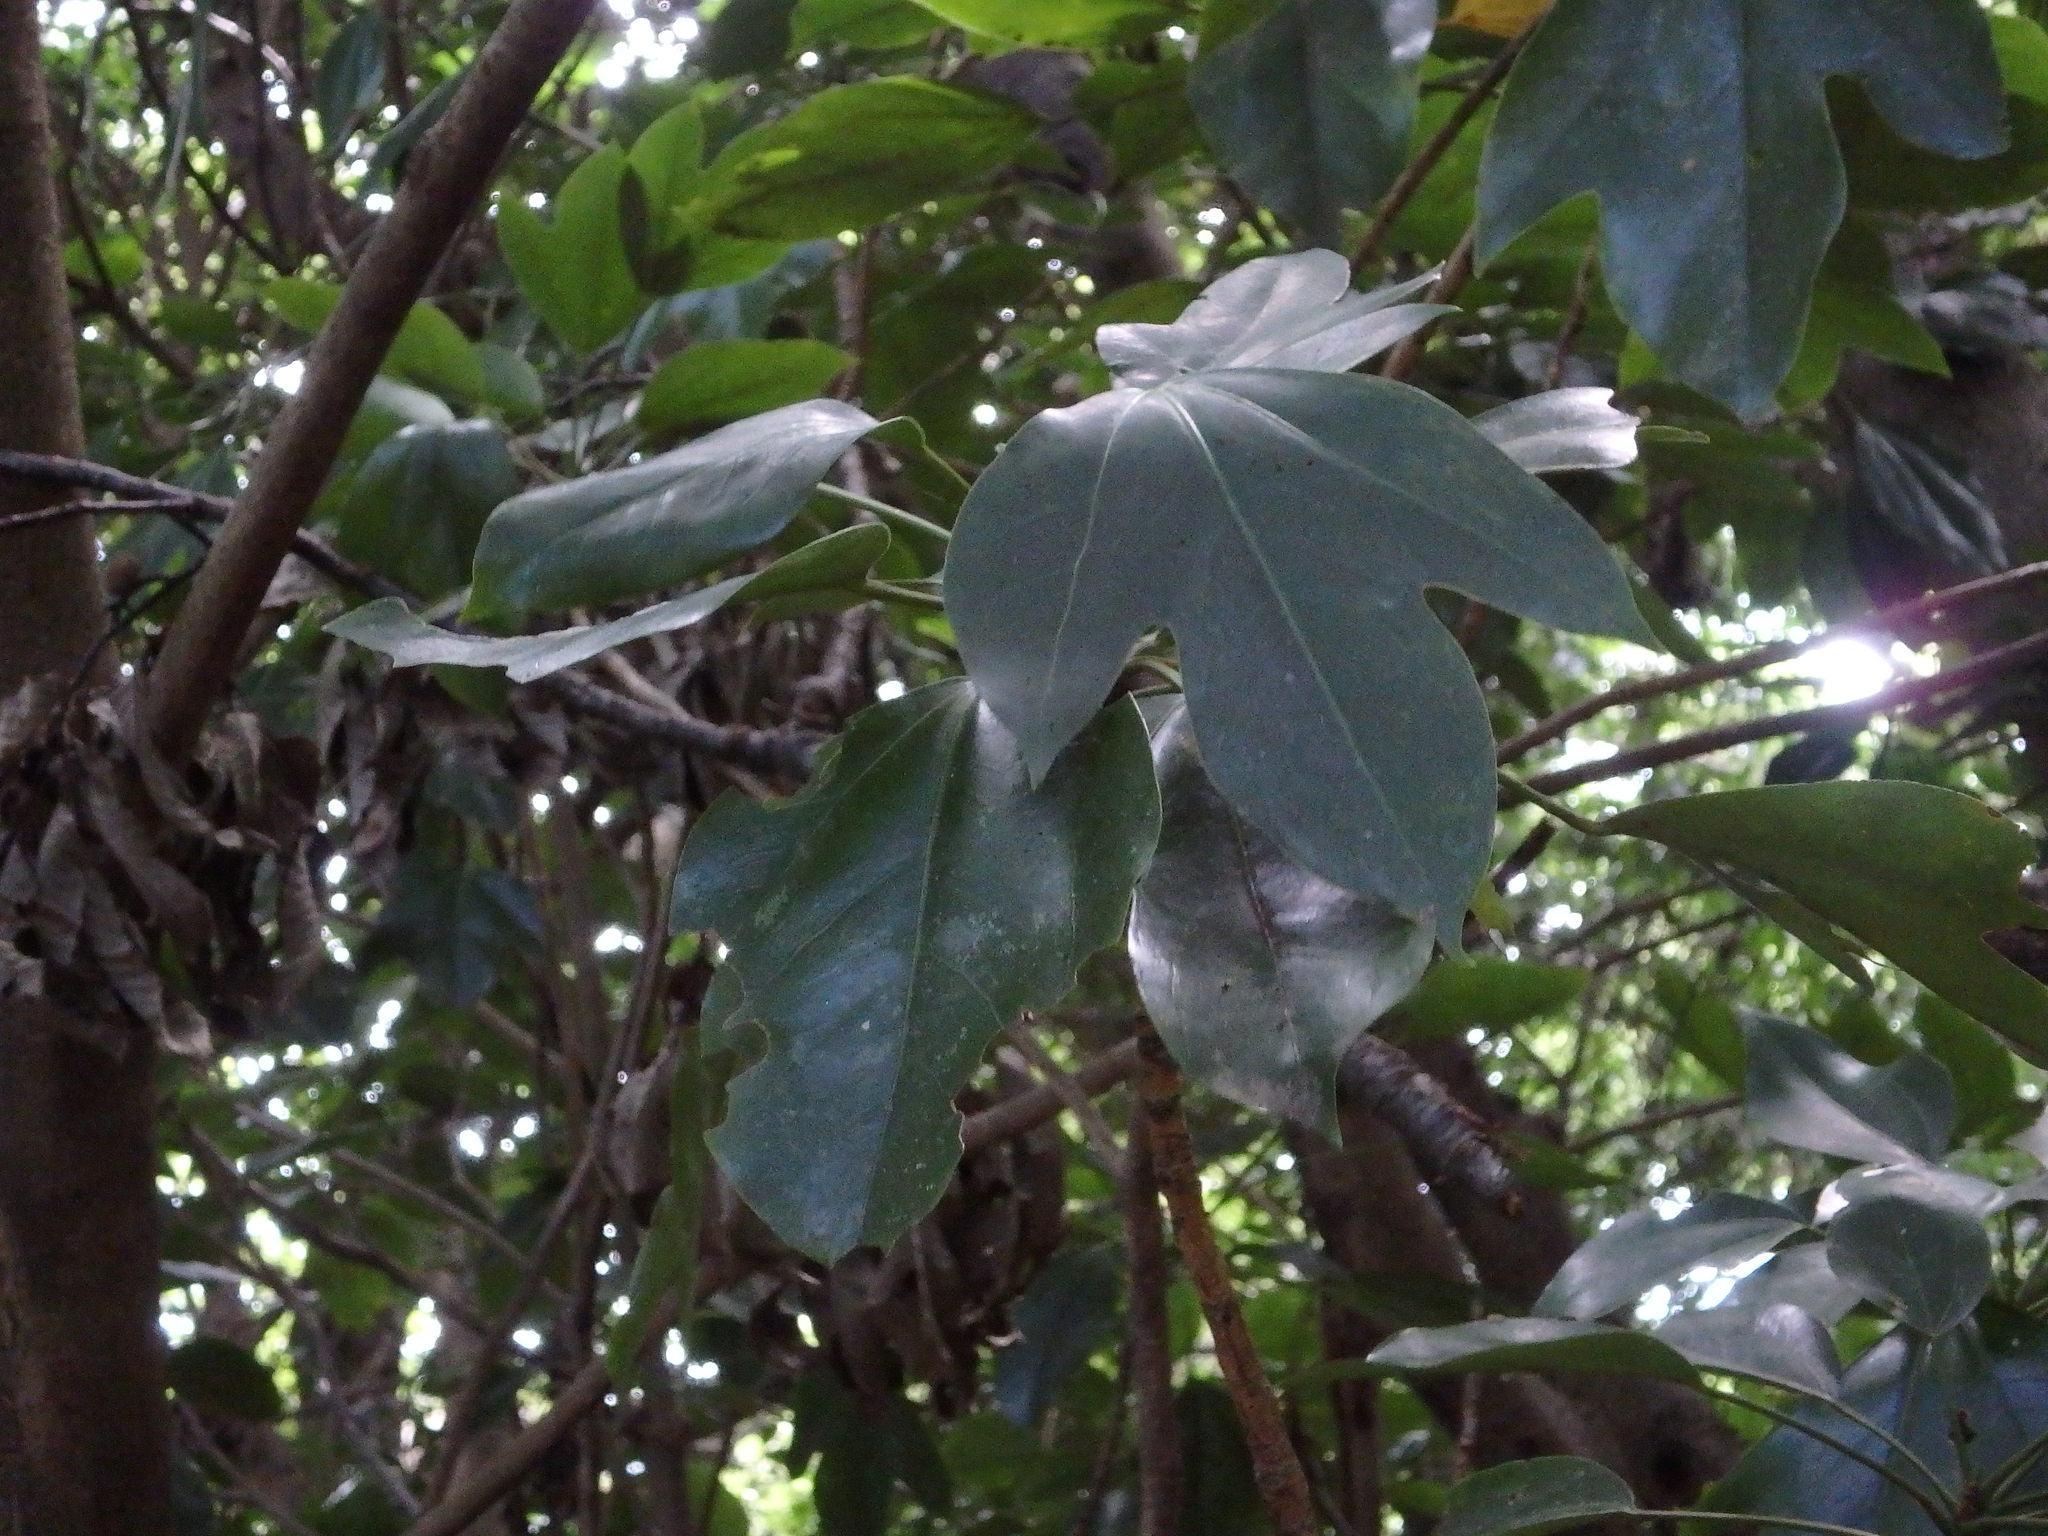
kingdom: Plantae
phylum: Tracheophyta
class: Magnoliopsida
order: Apiales
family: Araliaceae
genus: Dendropanax
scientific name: Dendropanax trifidus
